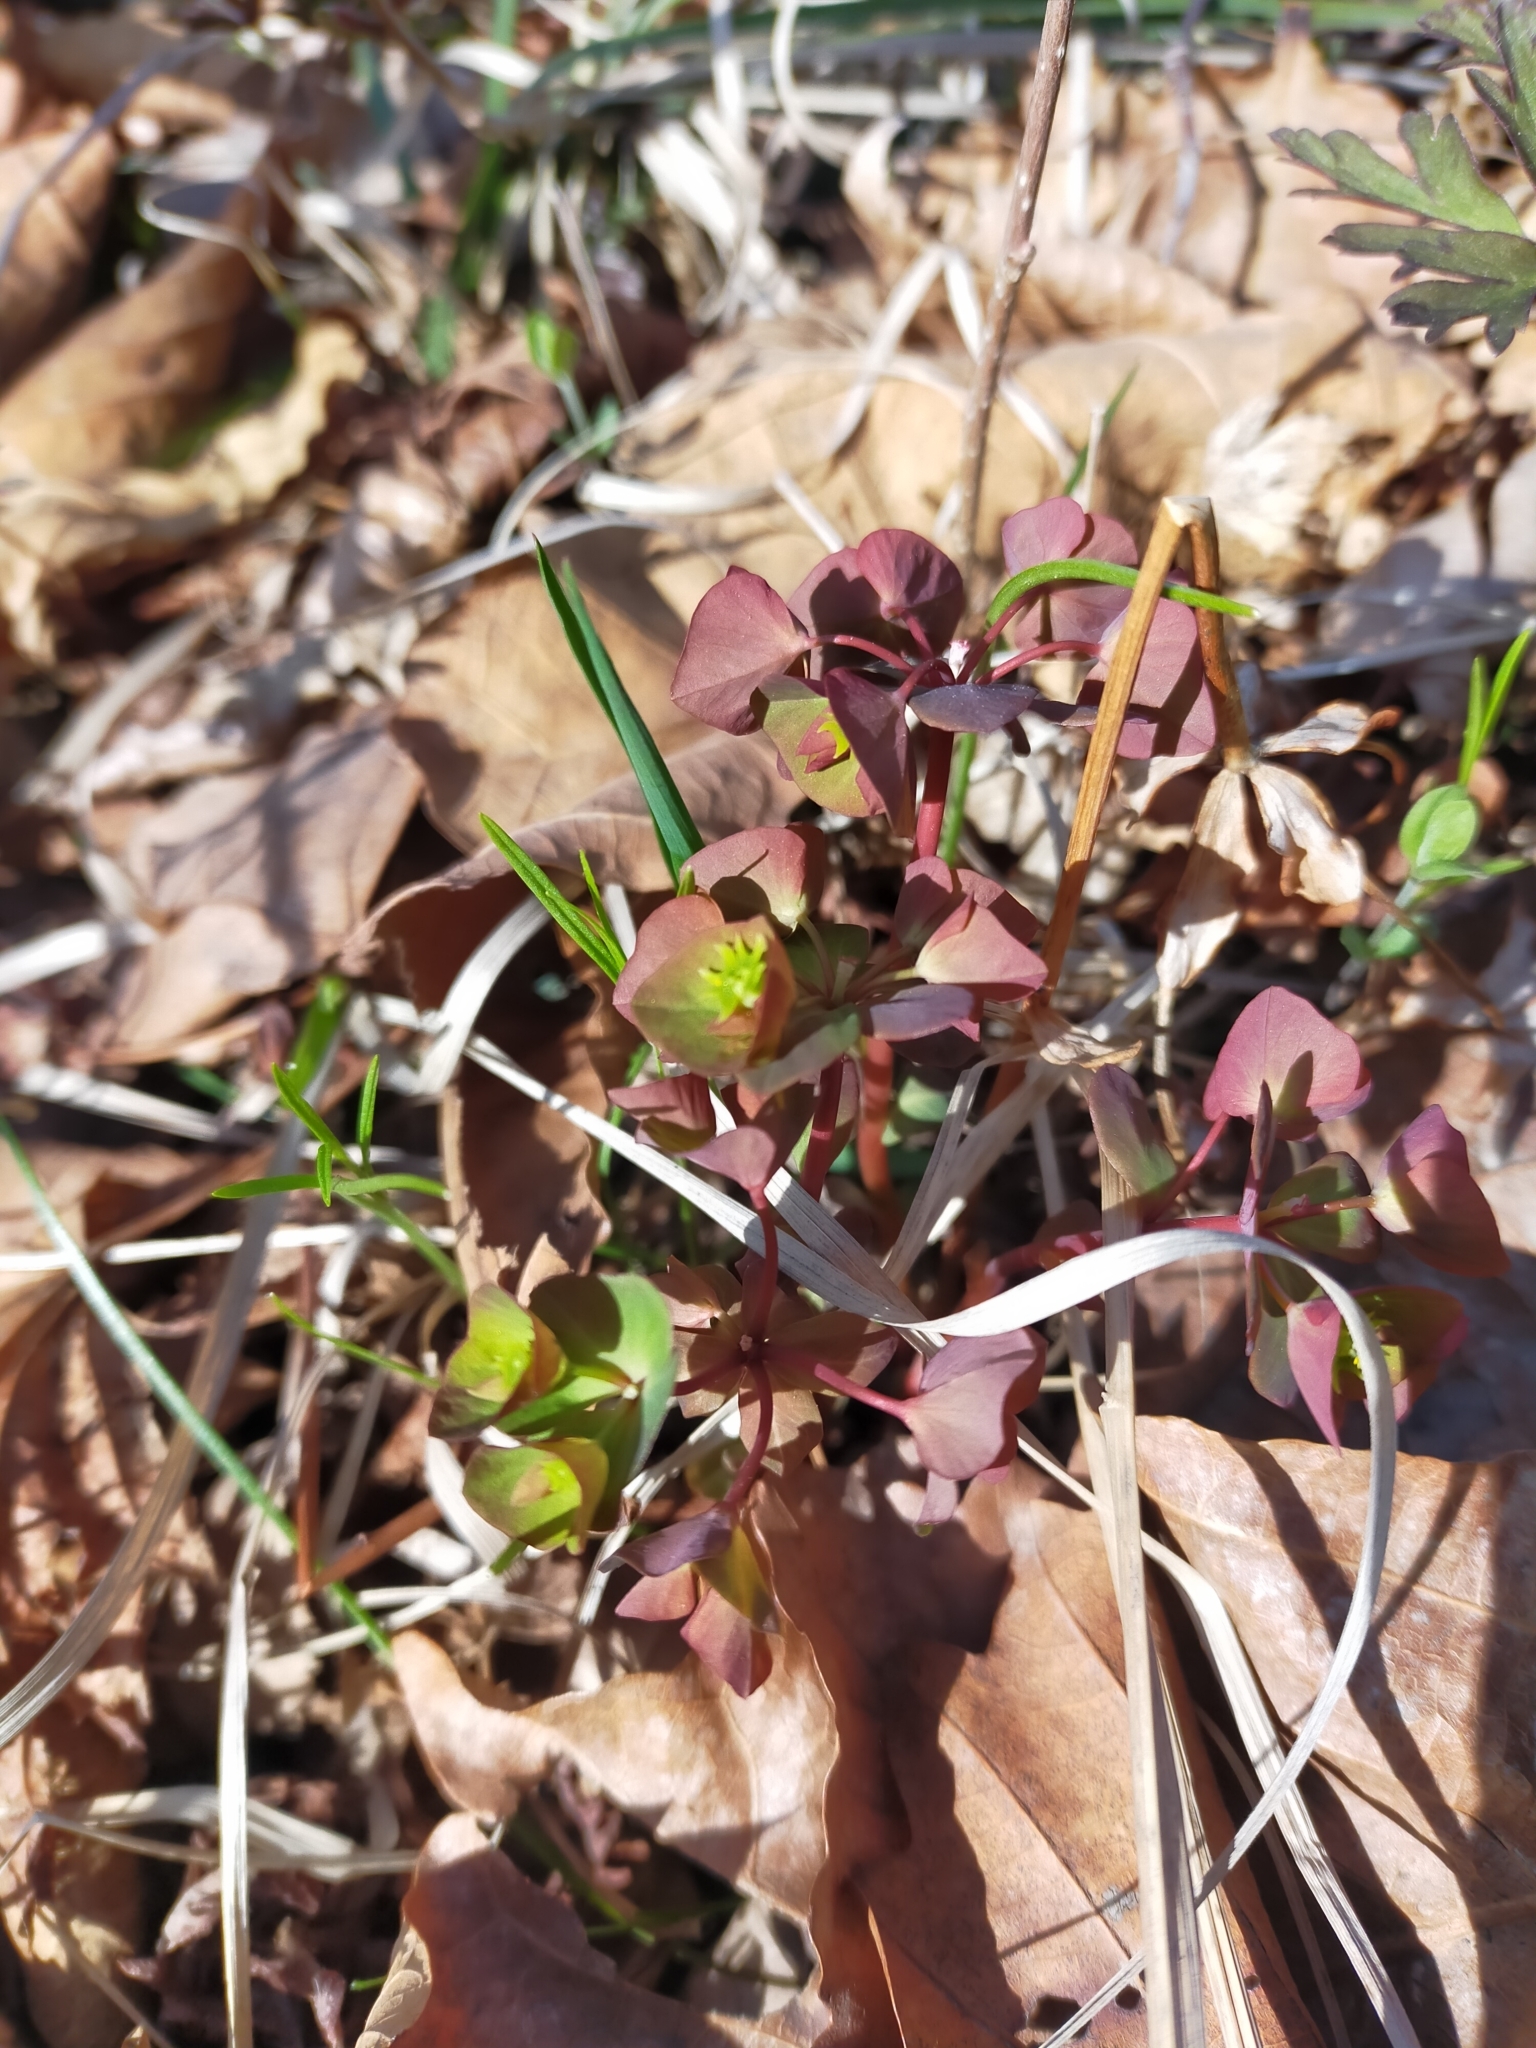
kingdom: Plantae
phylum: Tracheophyta
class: Magnoliopsida
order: Malpighiales
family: Euphorbiaceae
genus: Euphorbia
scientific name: Euphorbia sieboldiana
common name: Siebold's spurge
